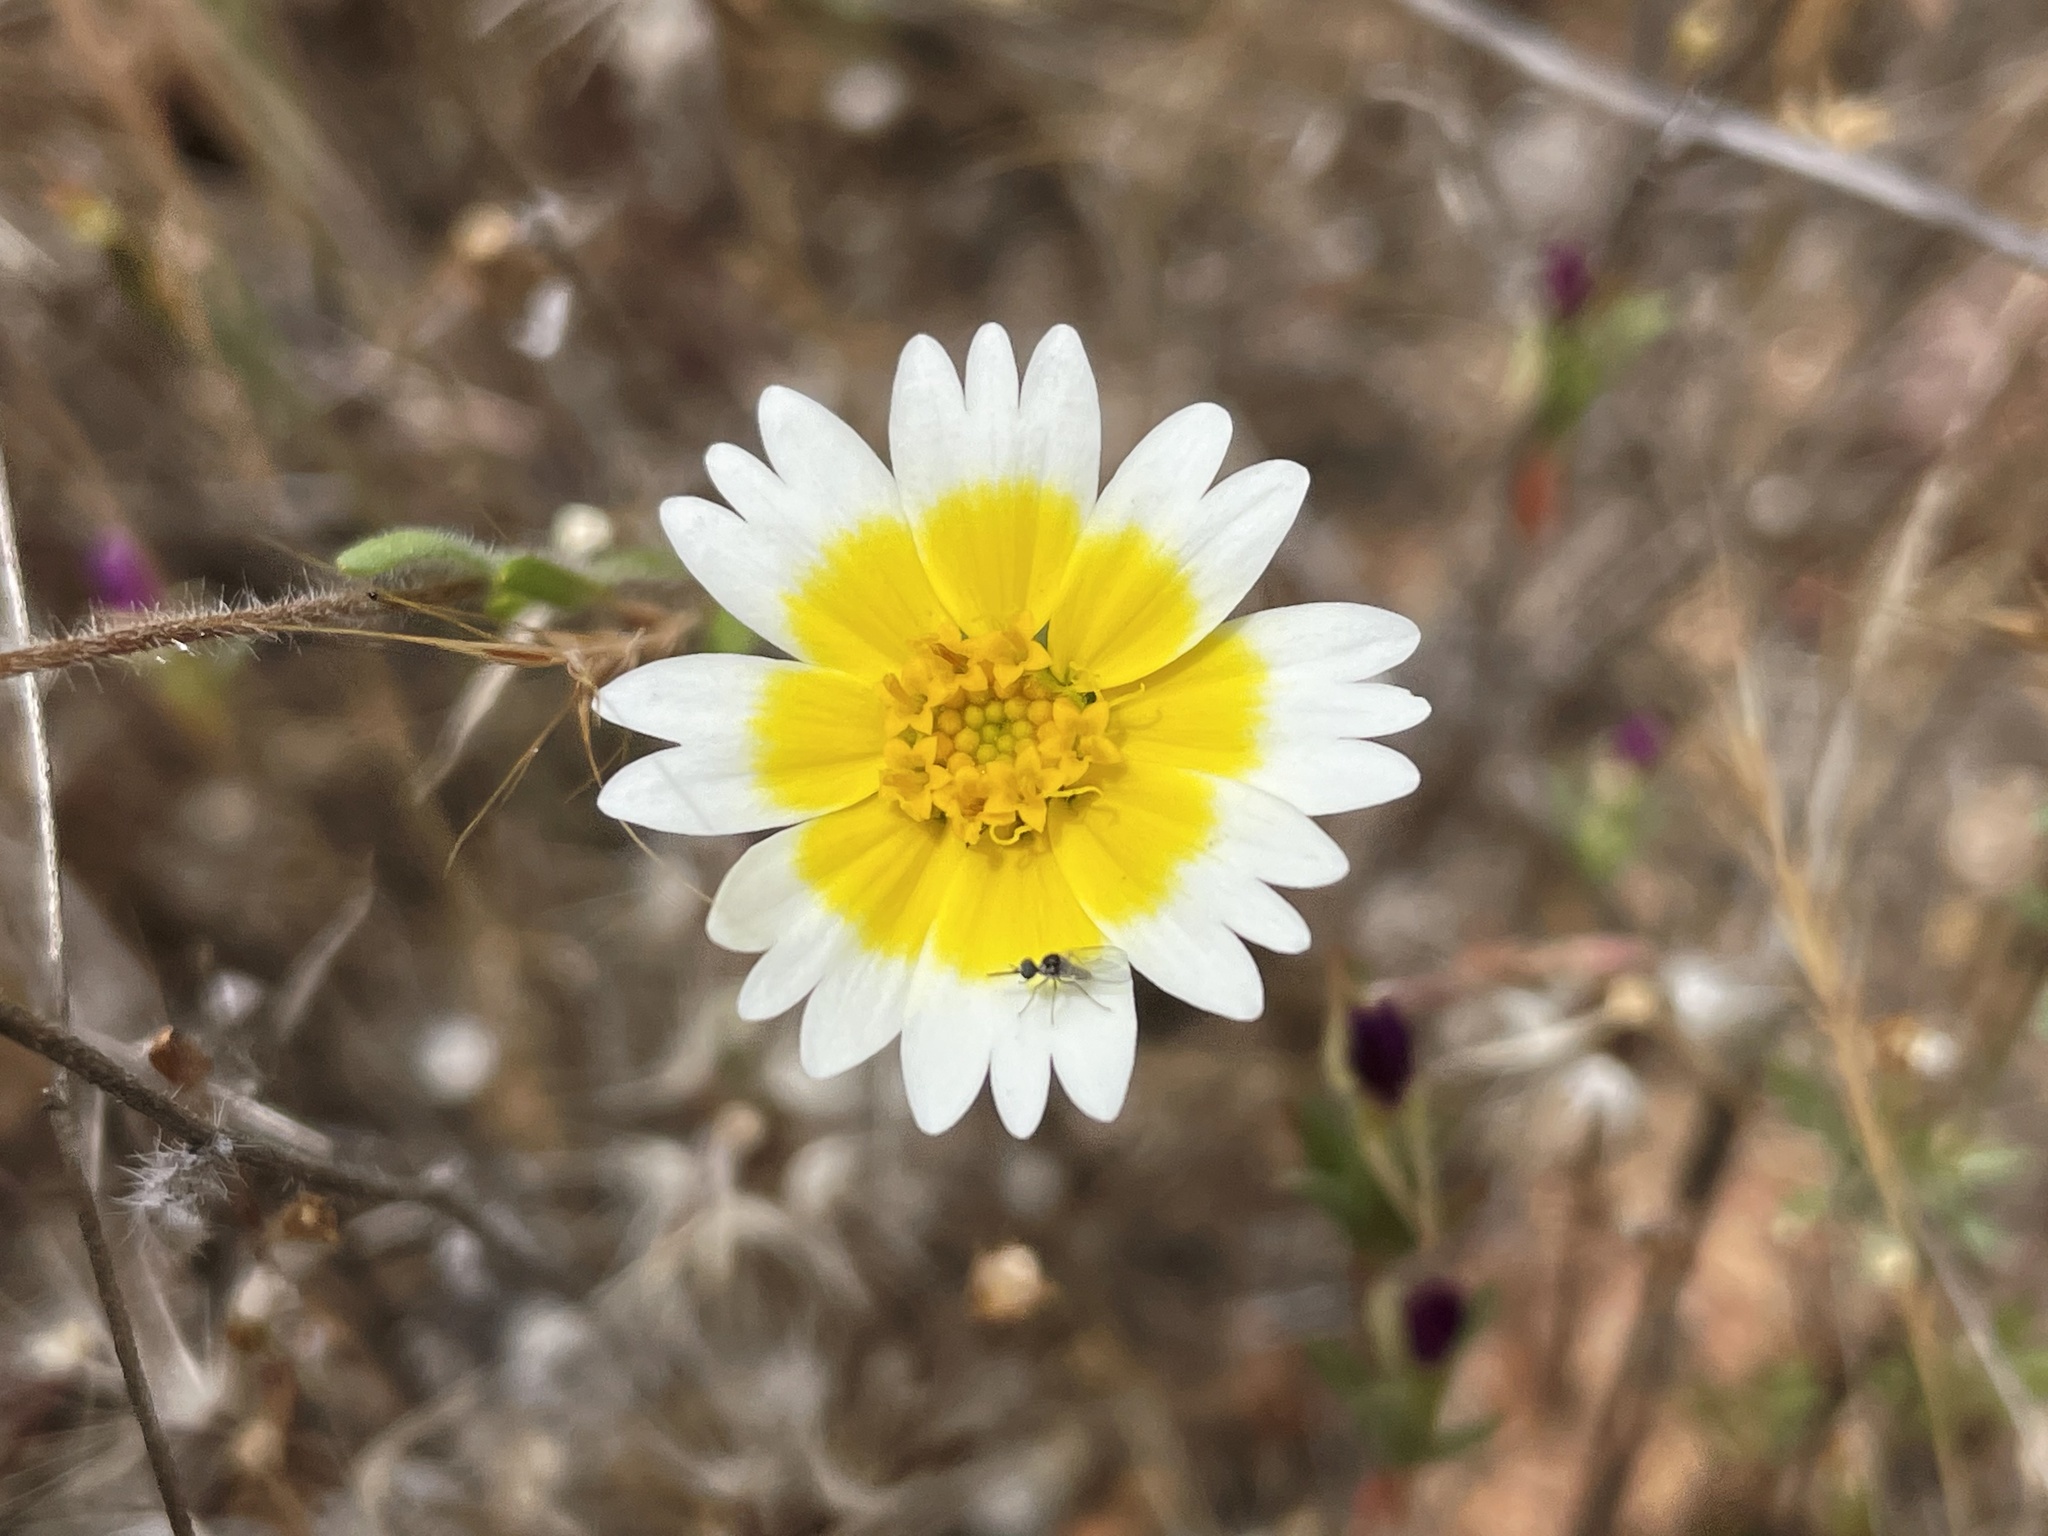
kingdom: Plantae
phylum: Tracheophyta
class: Magnoliopsida
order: Asterales
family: Asteraceae
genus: Layia
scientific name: Layia platyglossa
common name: Tidy-tips
